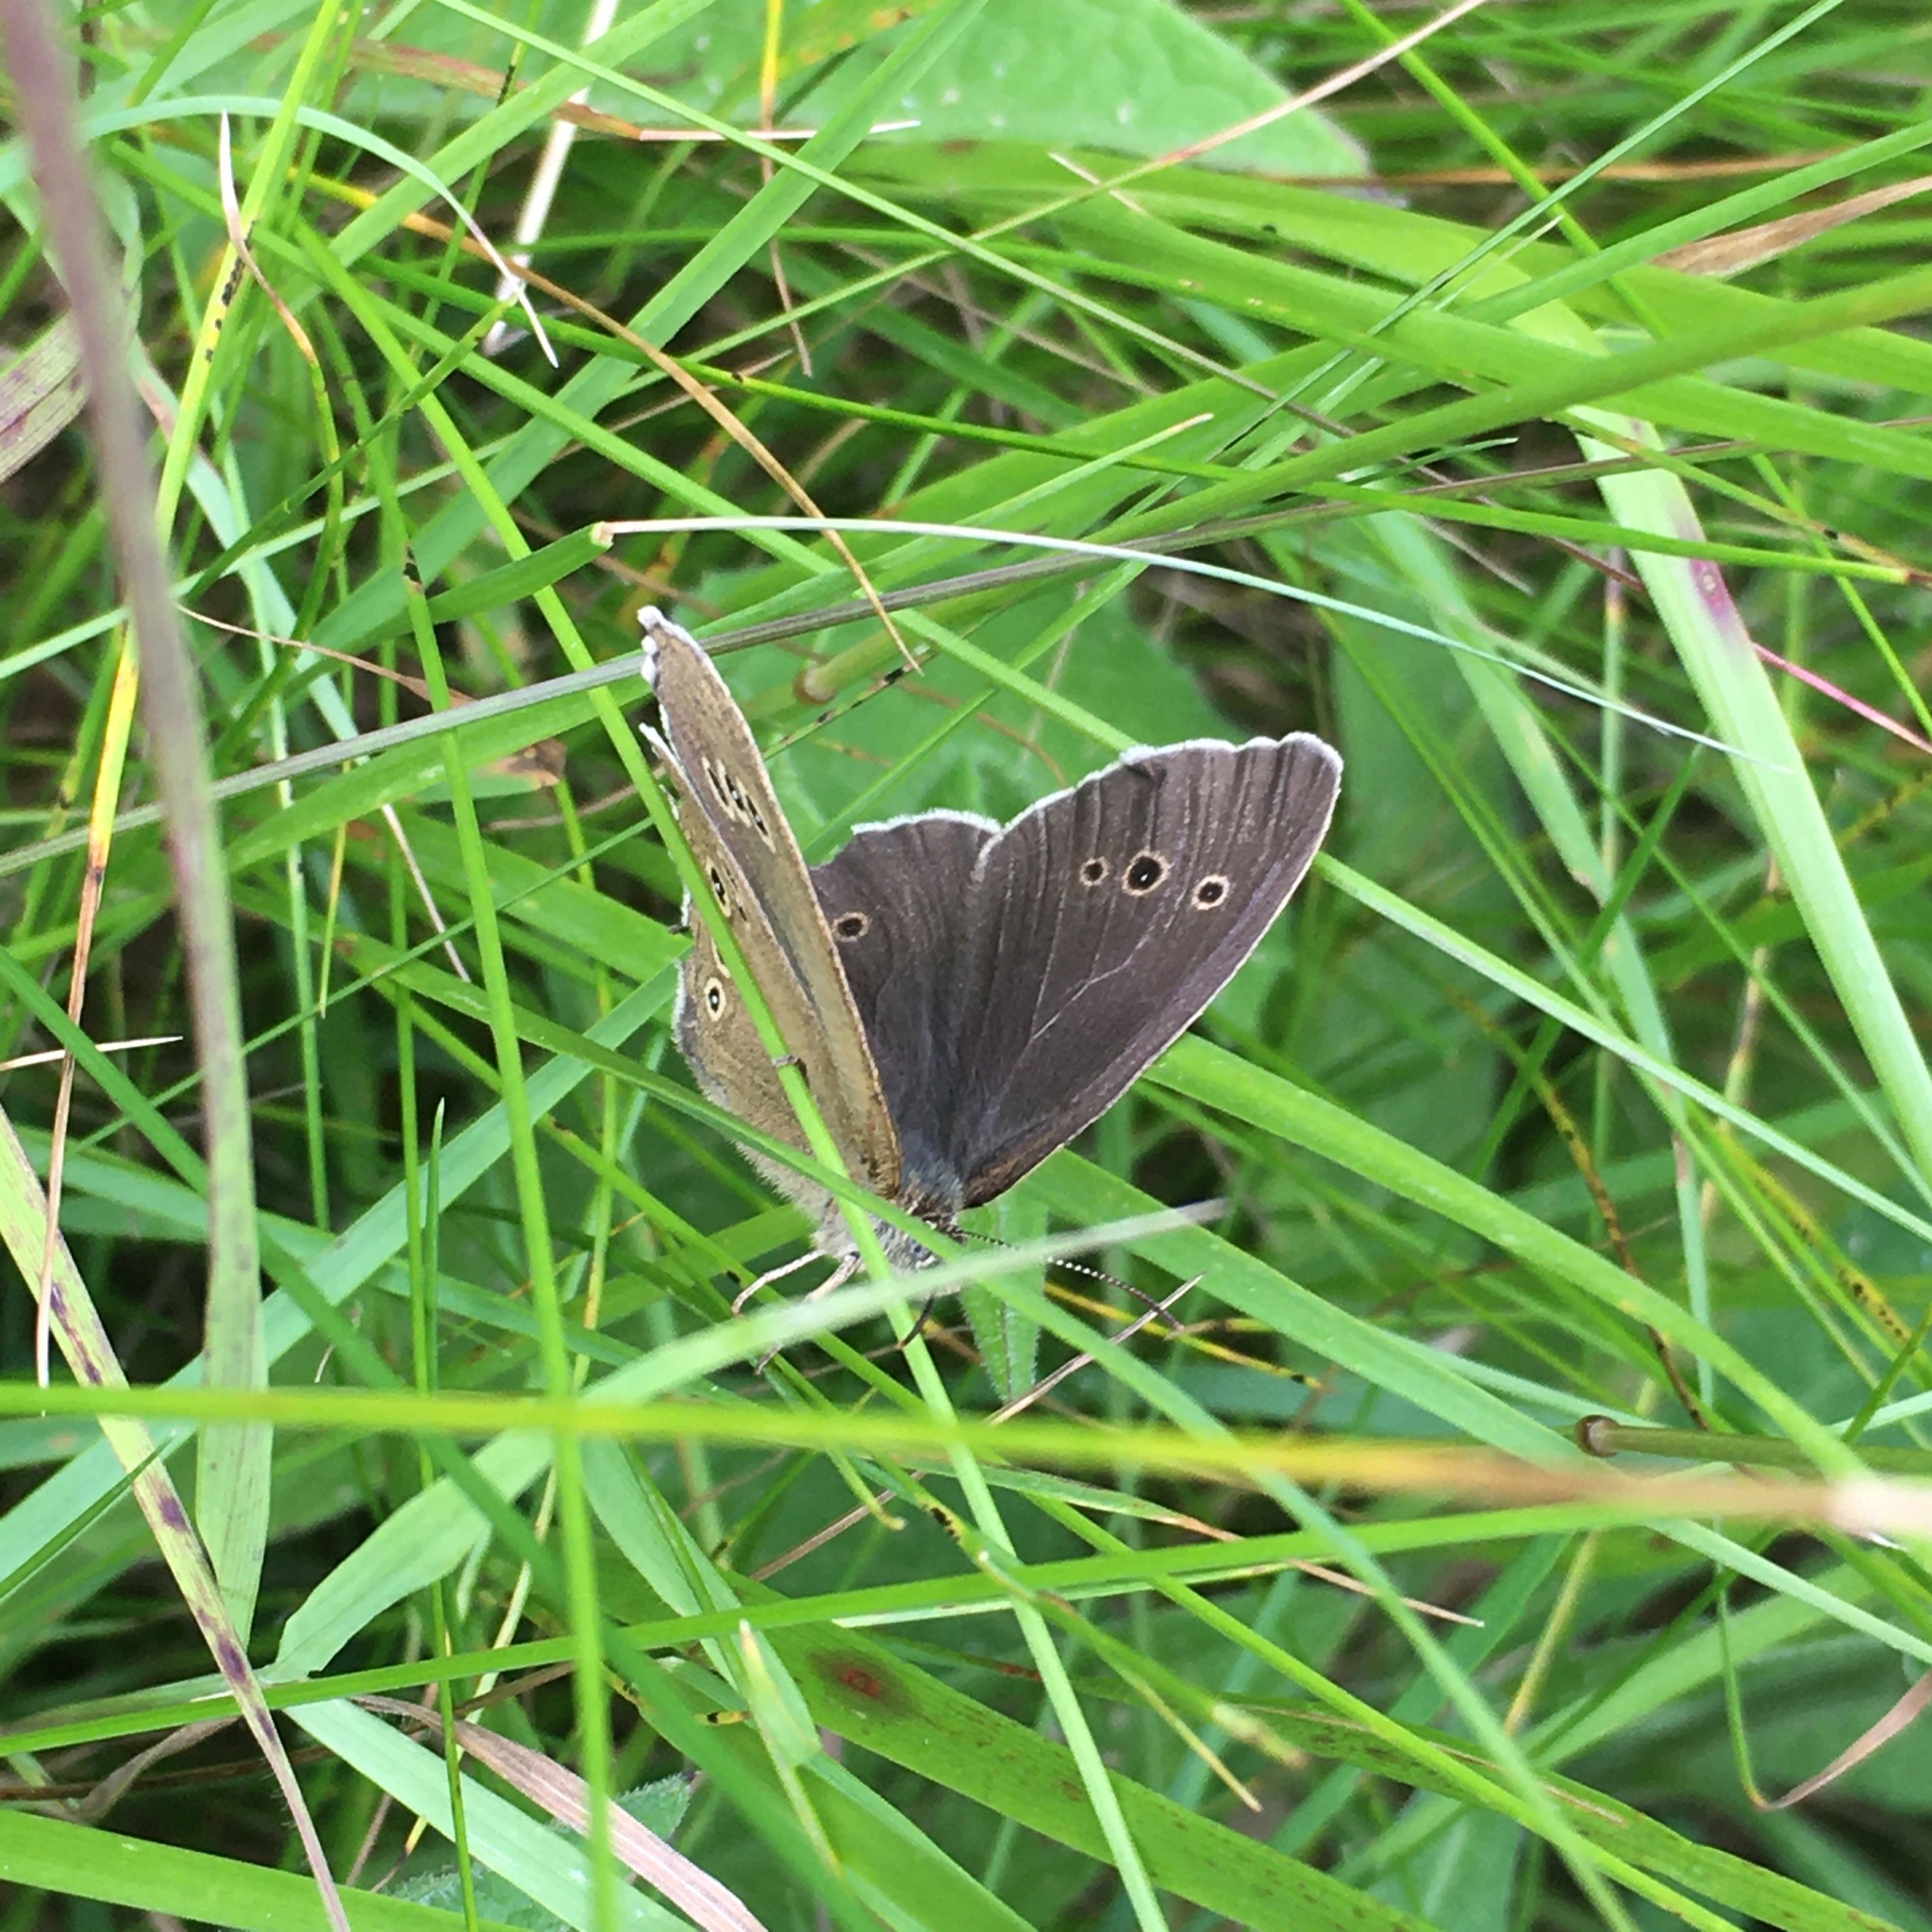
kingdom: Animalia
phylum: Arthropoda
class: Insecta
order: Lepidoptera
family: Nymphalidae
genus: Aphantopus
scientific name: Aphantopus hyperantus
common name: Ringlet
